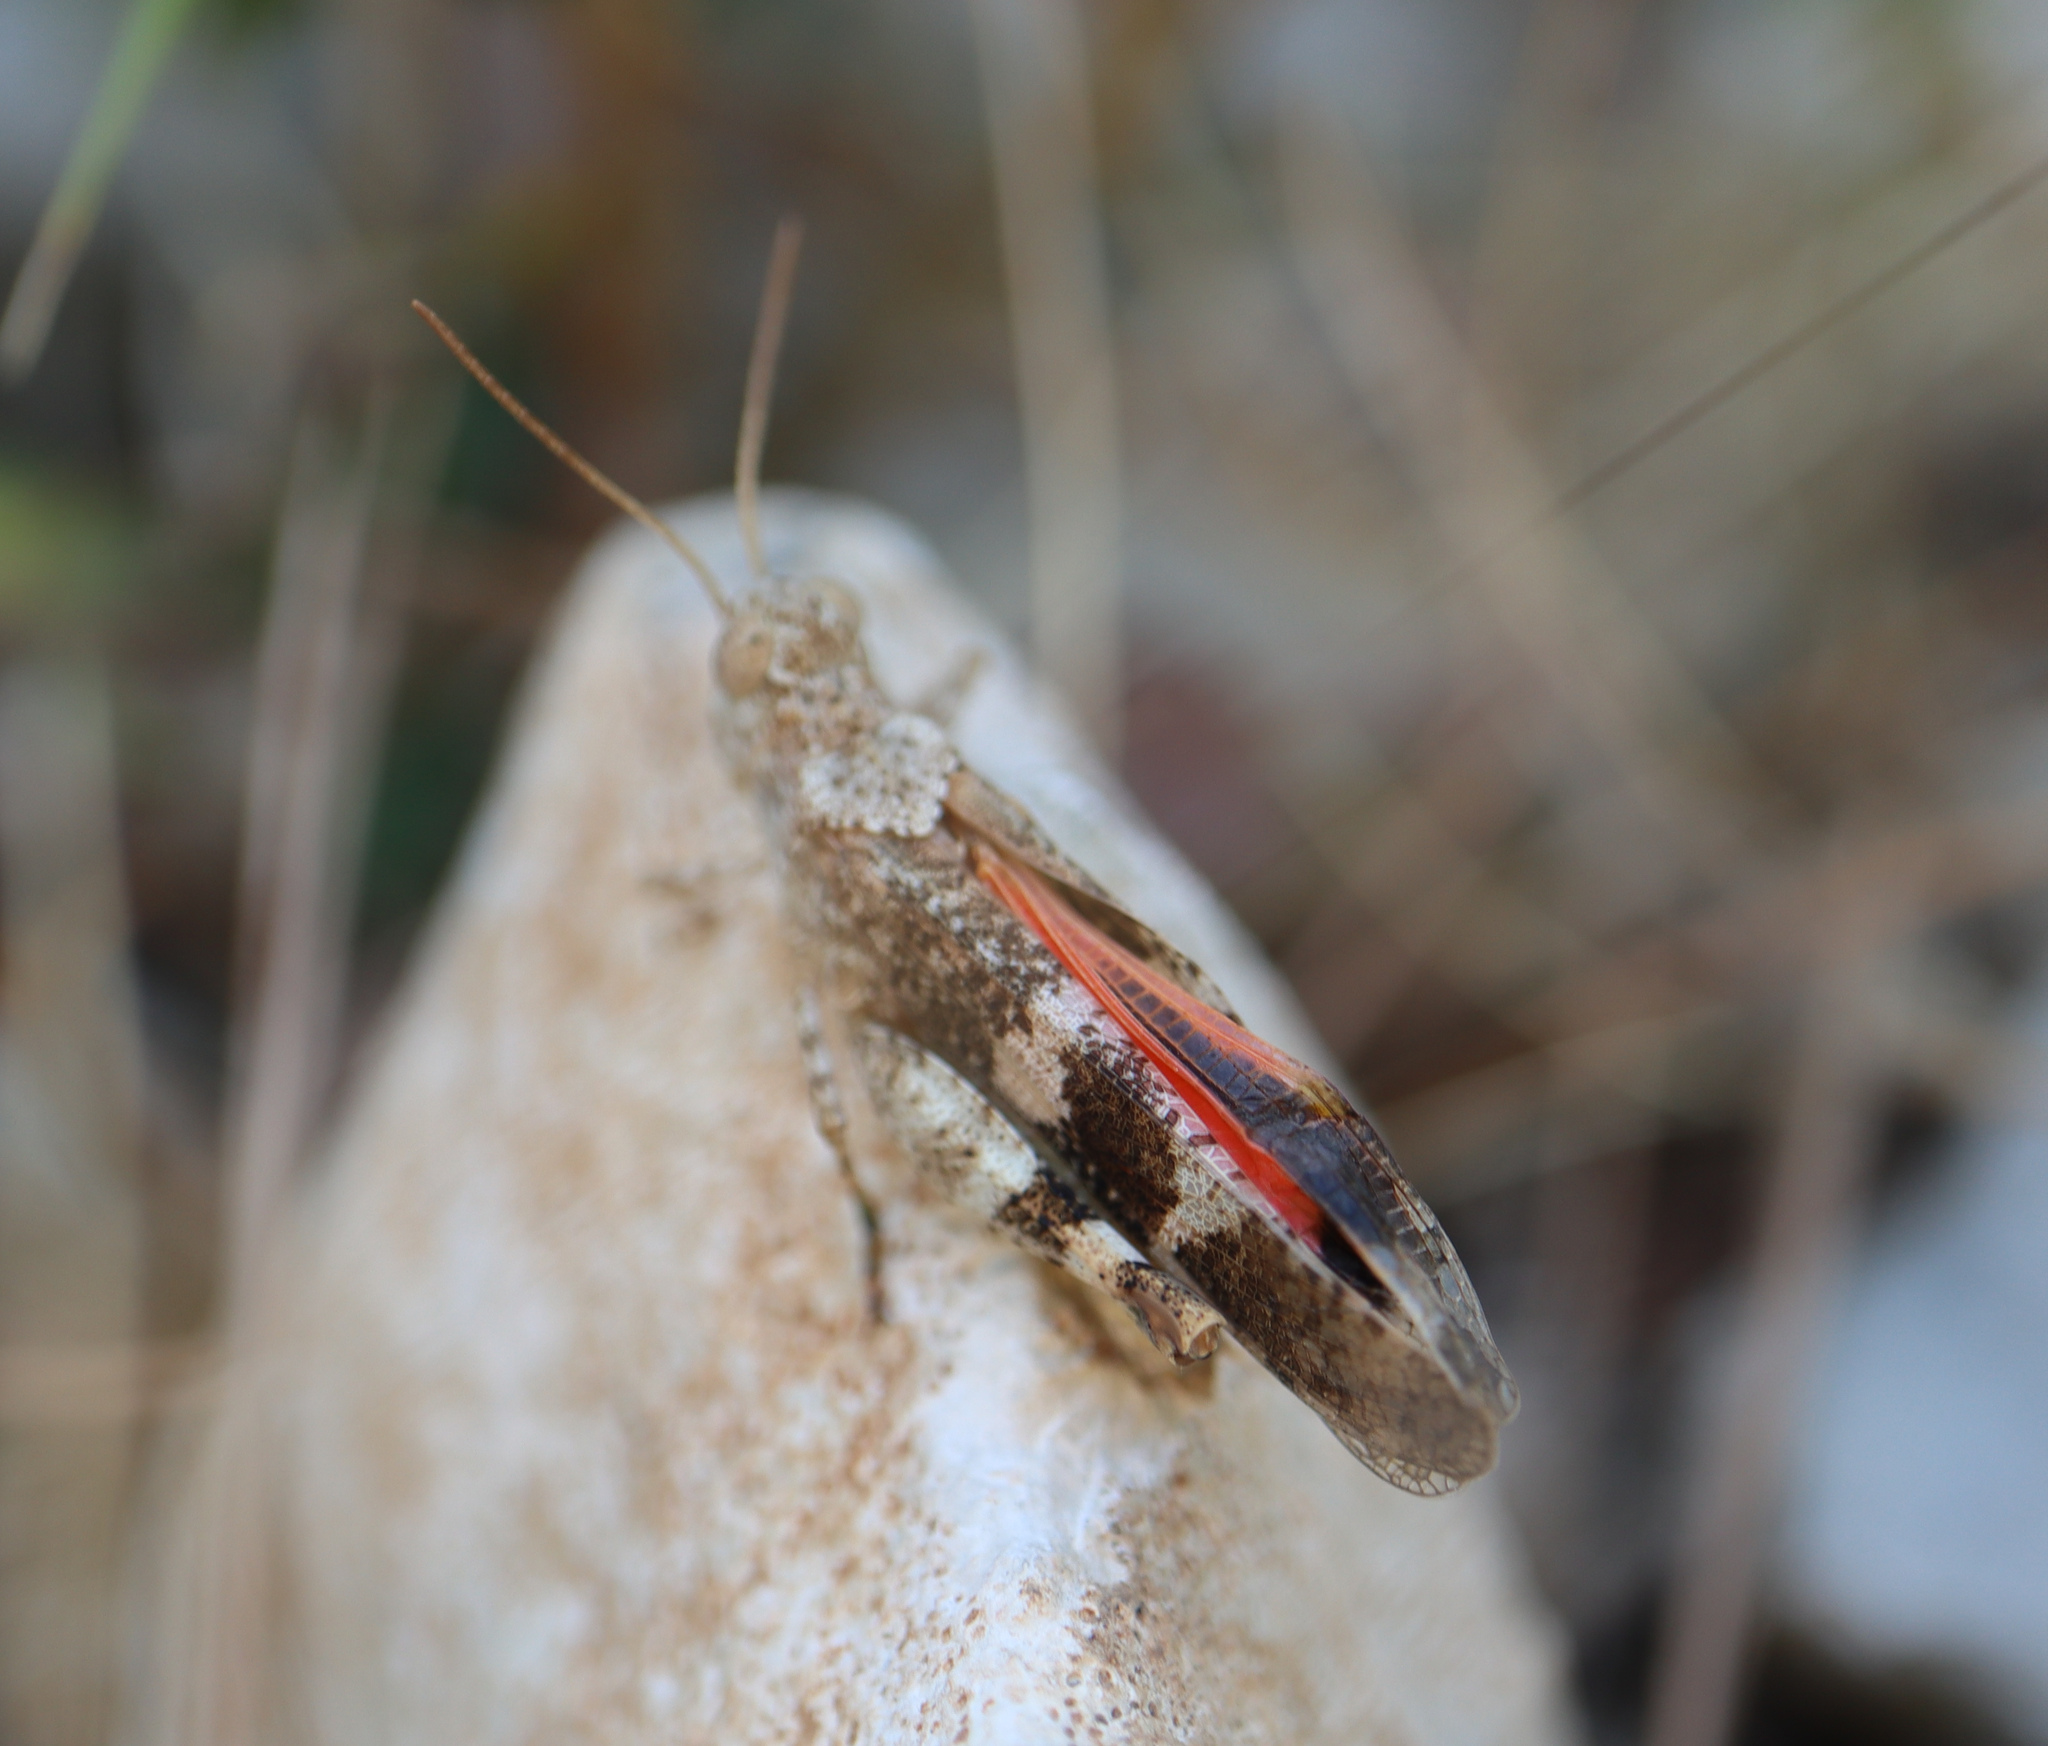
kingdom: Animalia
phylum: Arthropoda
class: Insecta
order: Orthoptera
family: Acrididae
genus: Oedipoda
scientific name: Oedipoda germanica
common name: Red band-winged grasshopper
